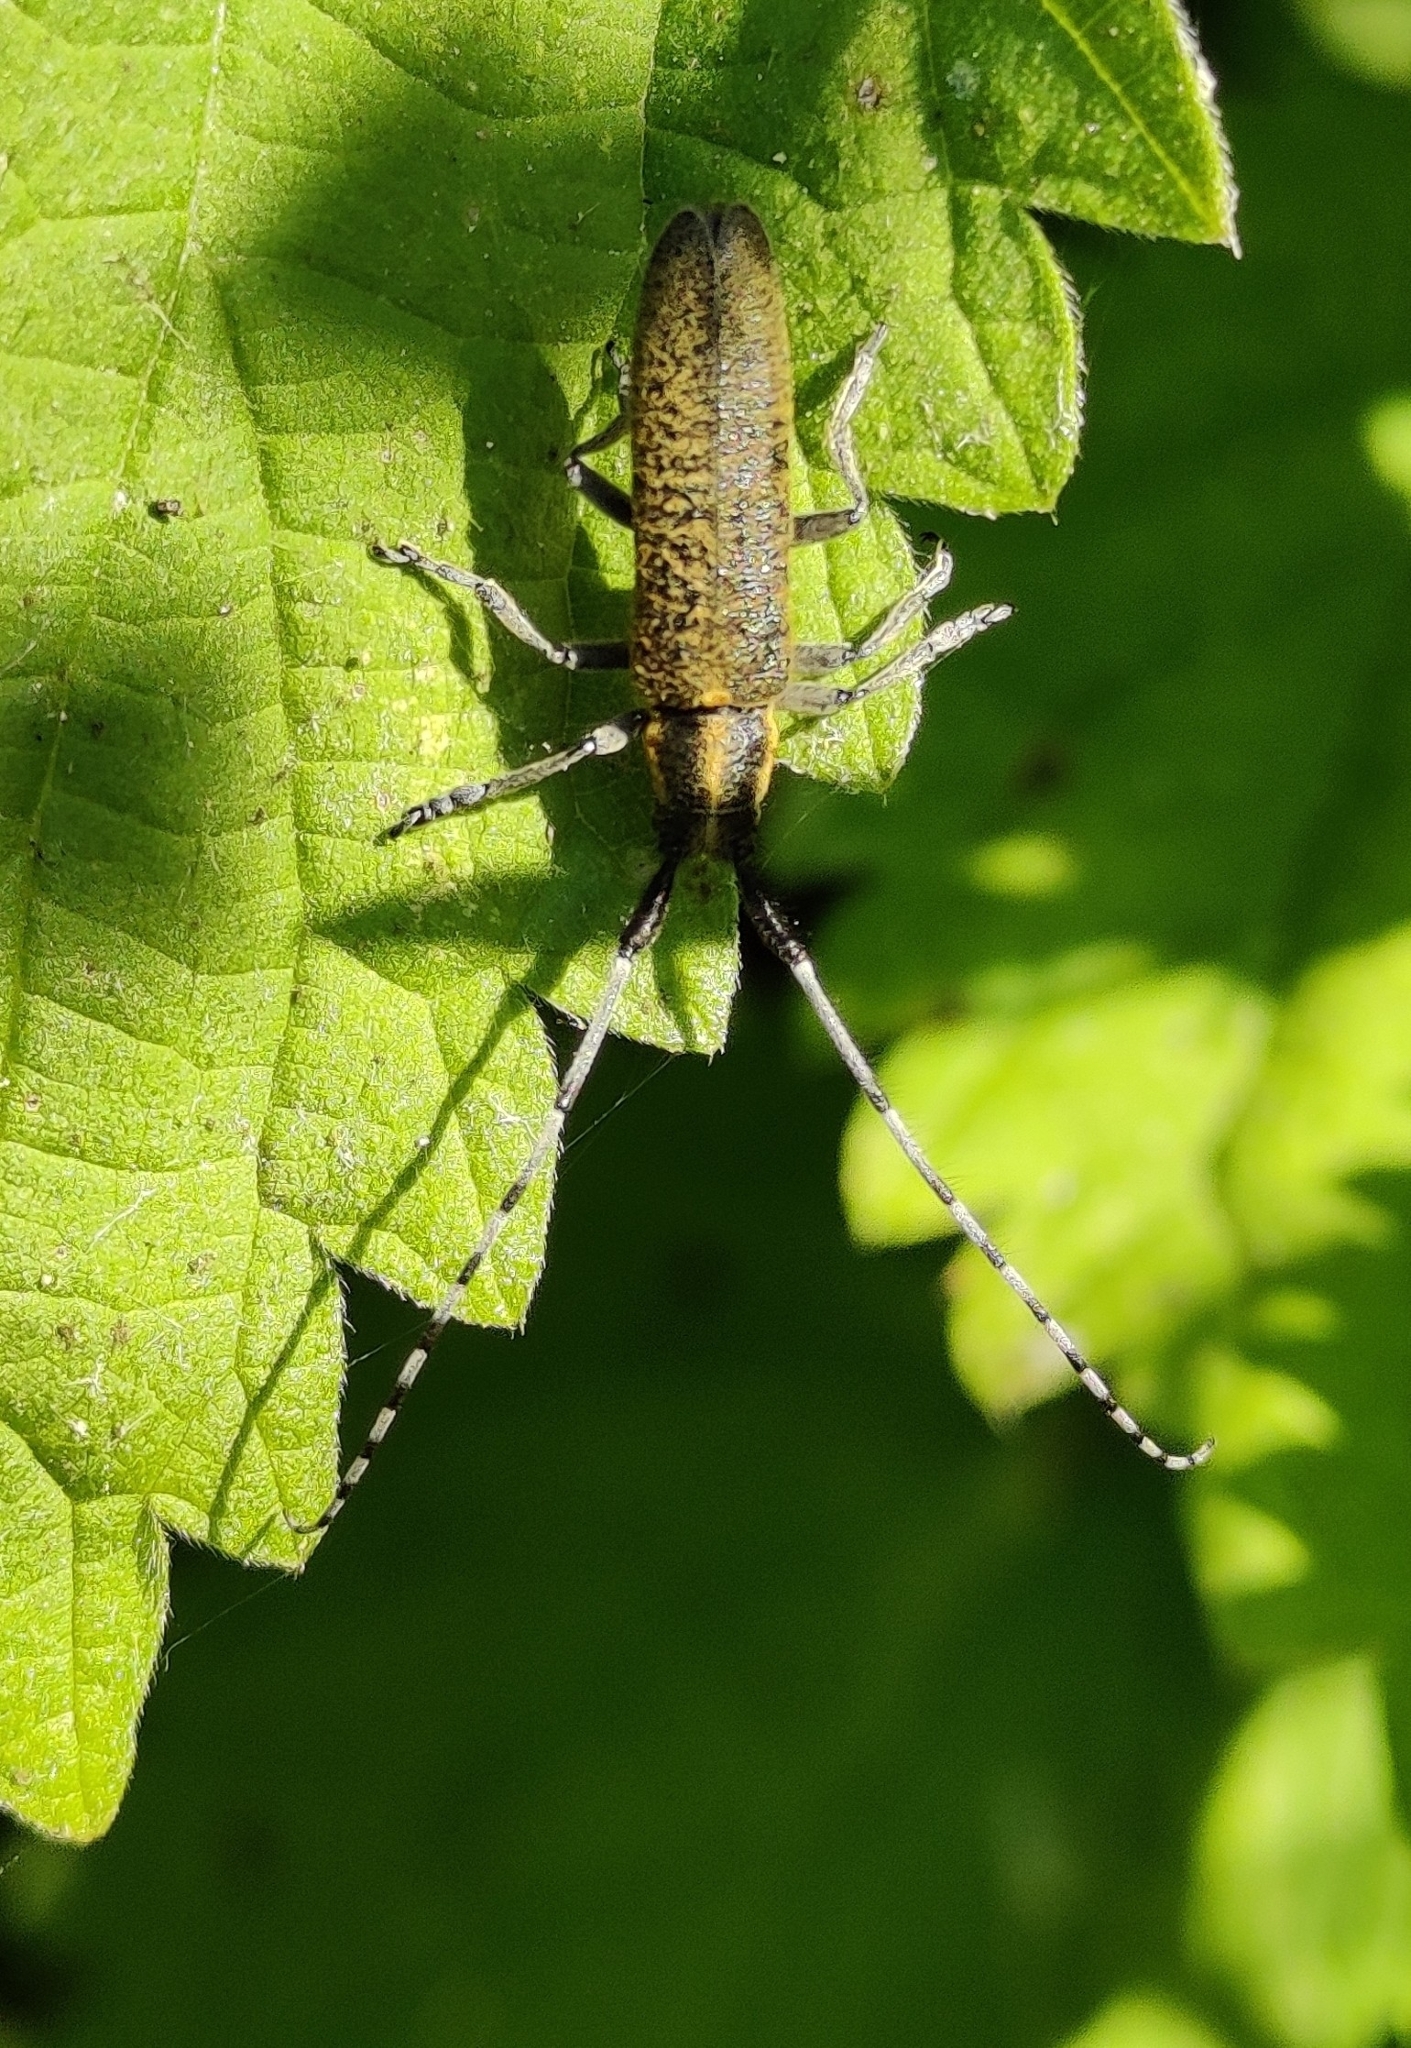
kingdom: Animalia
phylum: Arthropoda
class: Insecta
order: Coleoptera
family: Cerambycidae
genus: Agapanthia
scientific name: Agapanthia villosoviridescens
